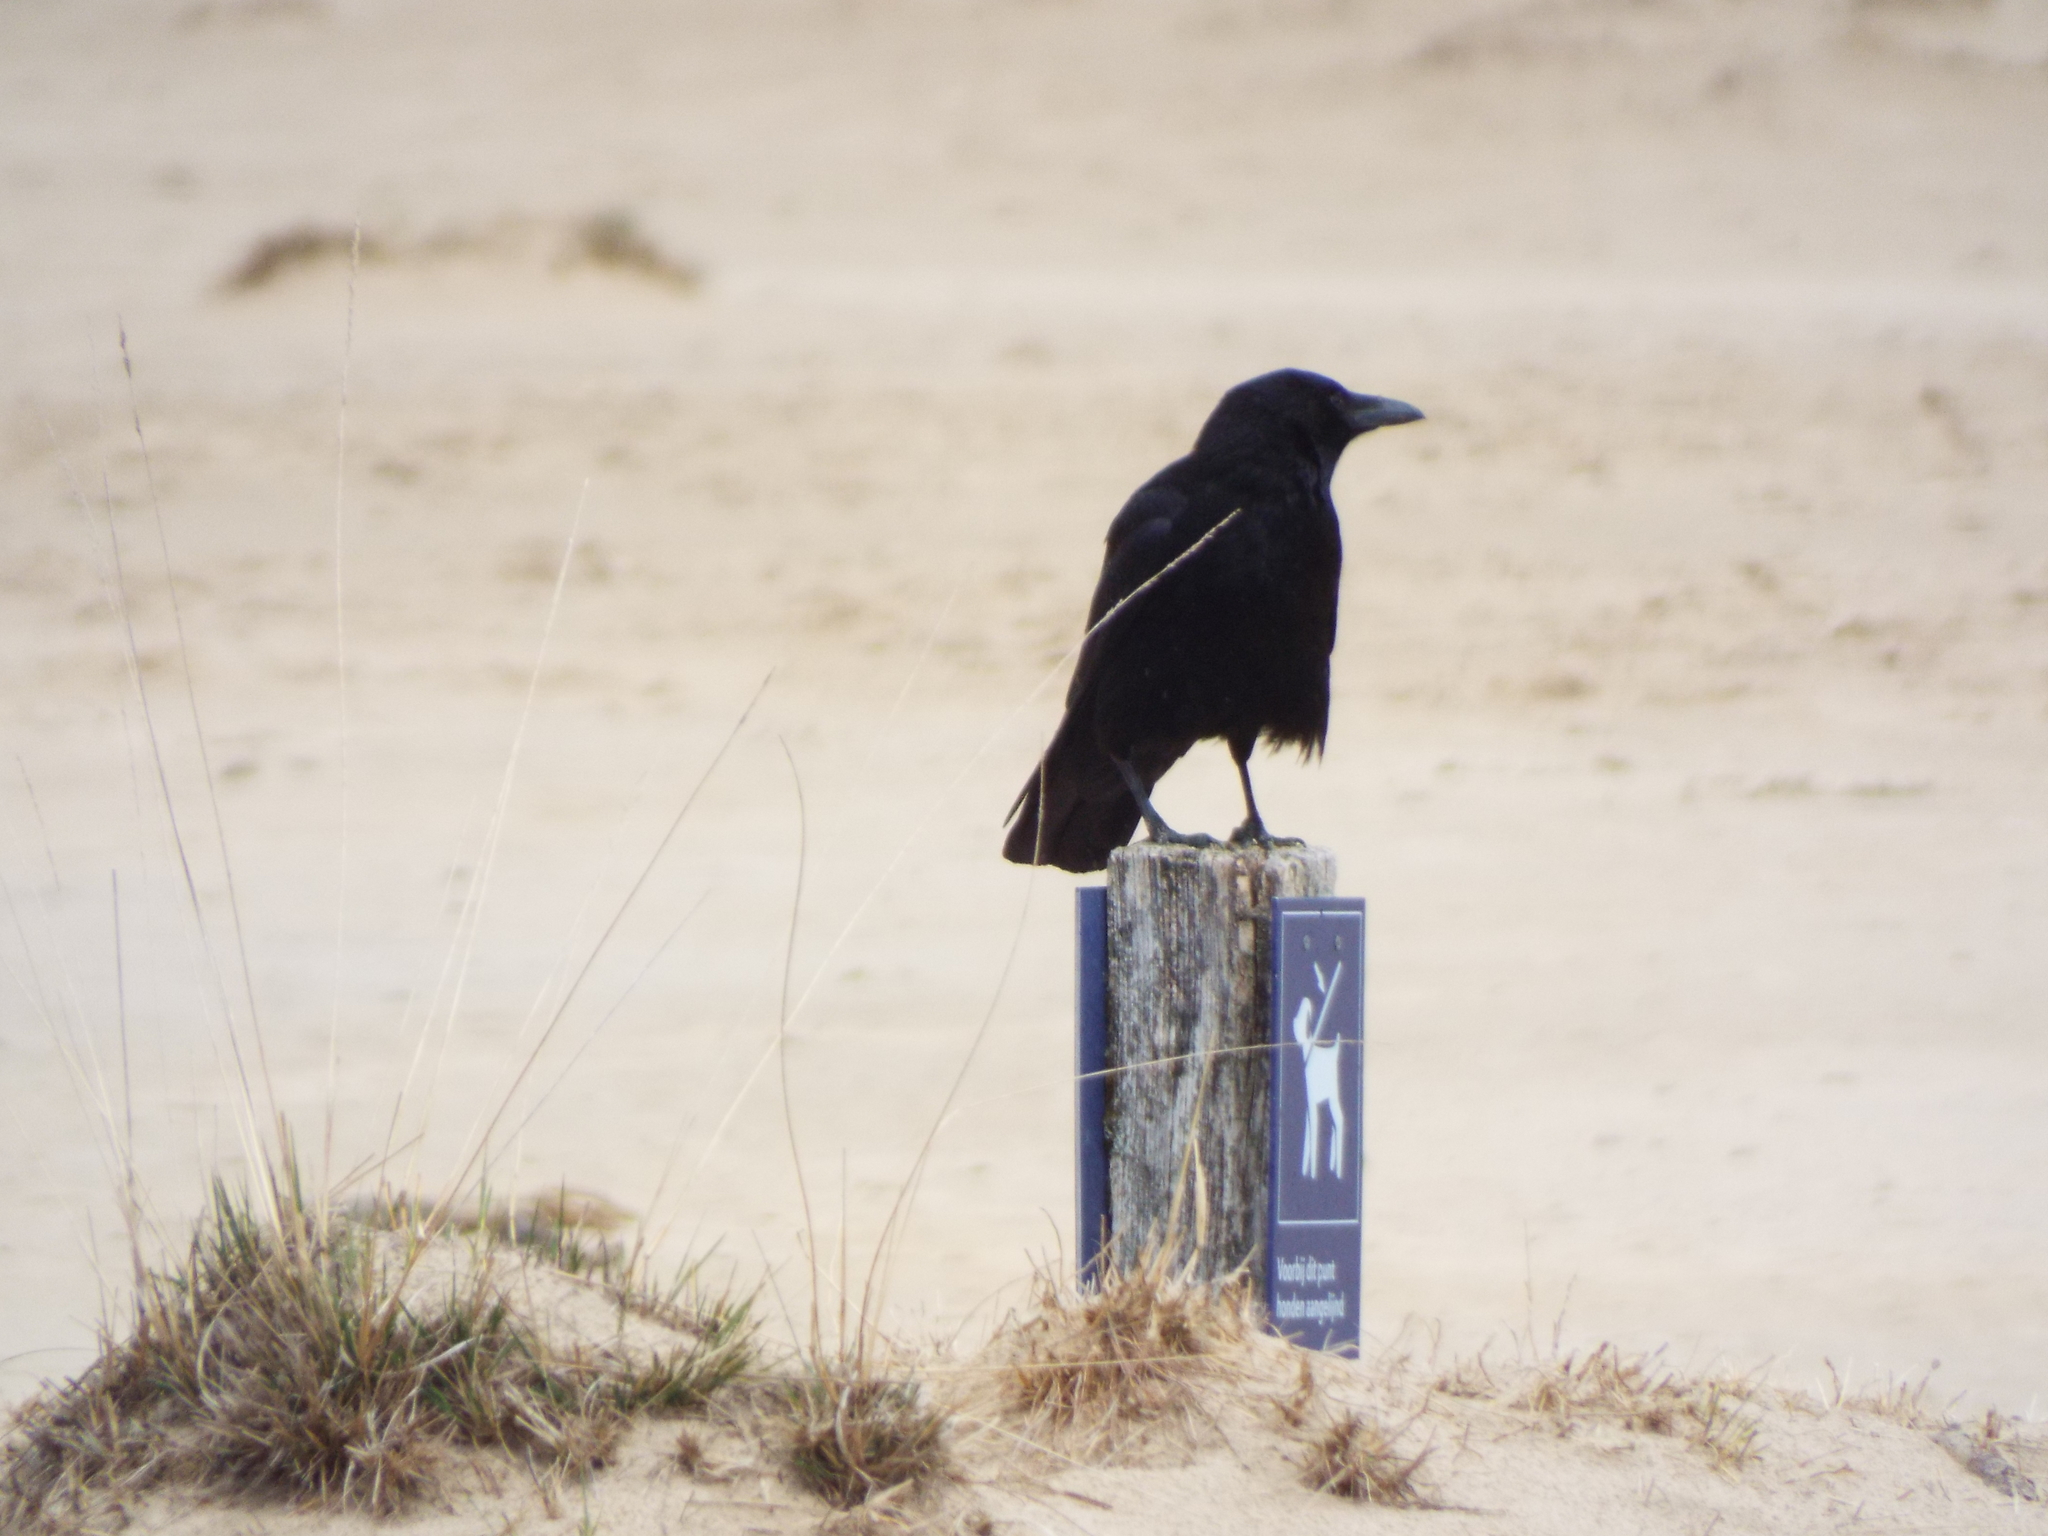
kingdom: Animalia
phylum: Chordata
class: Aves
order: Passeriformes
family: Corvidae
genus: Corvus
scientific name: Corvus corone
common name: Carrion crow
